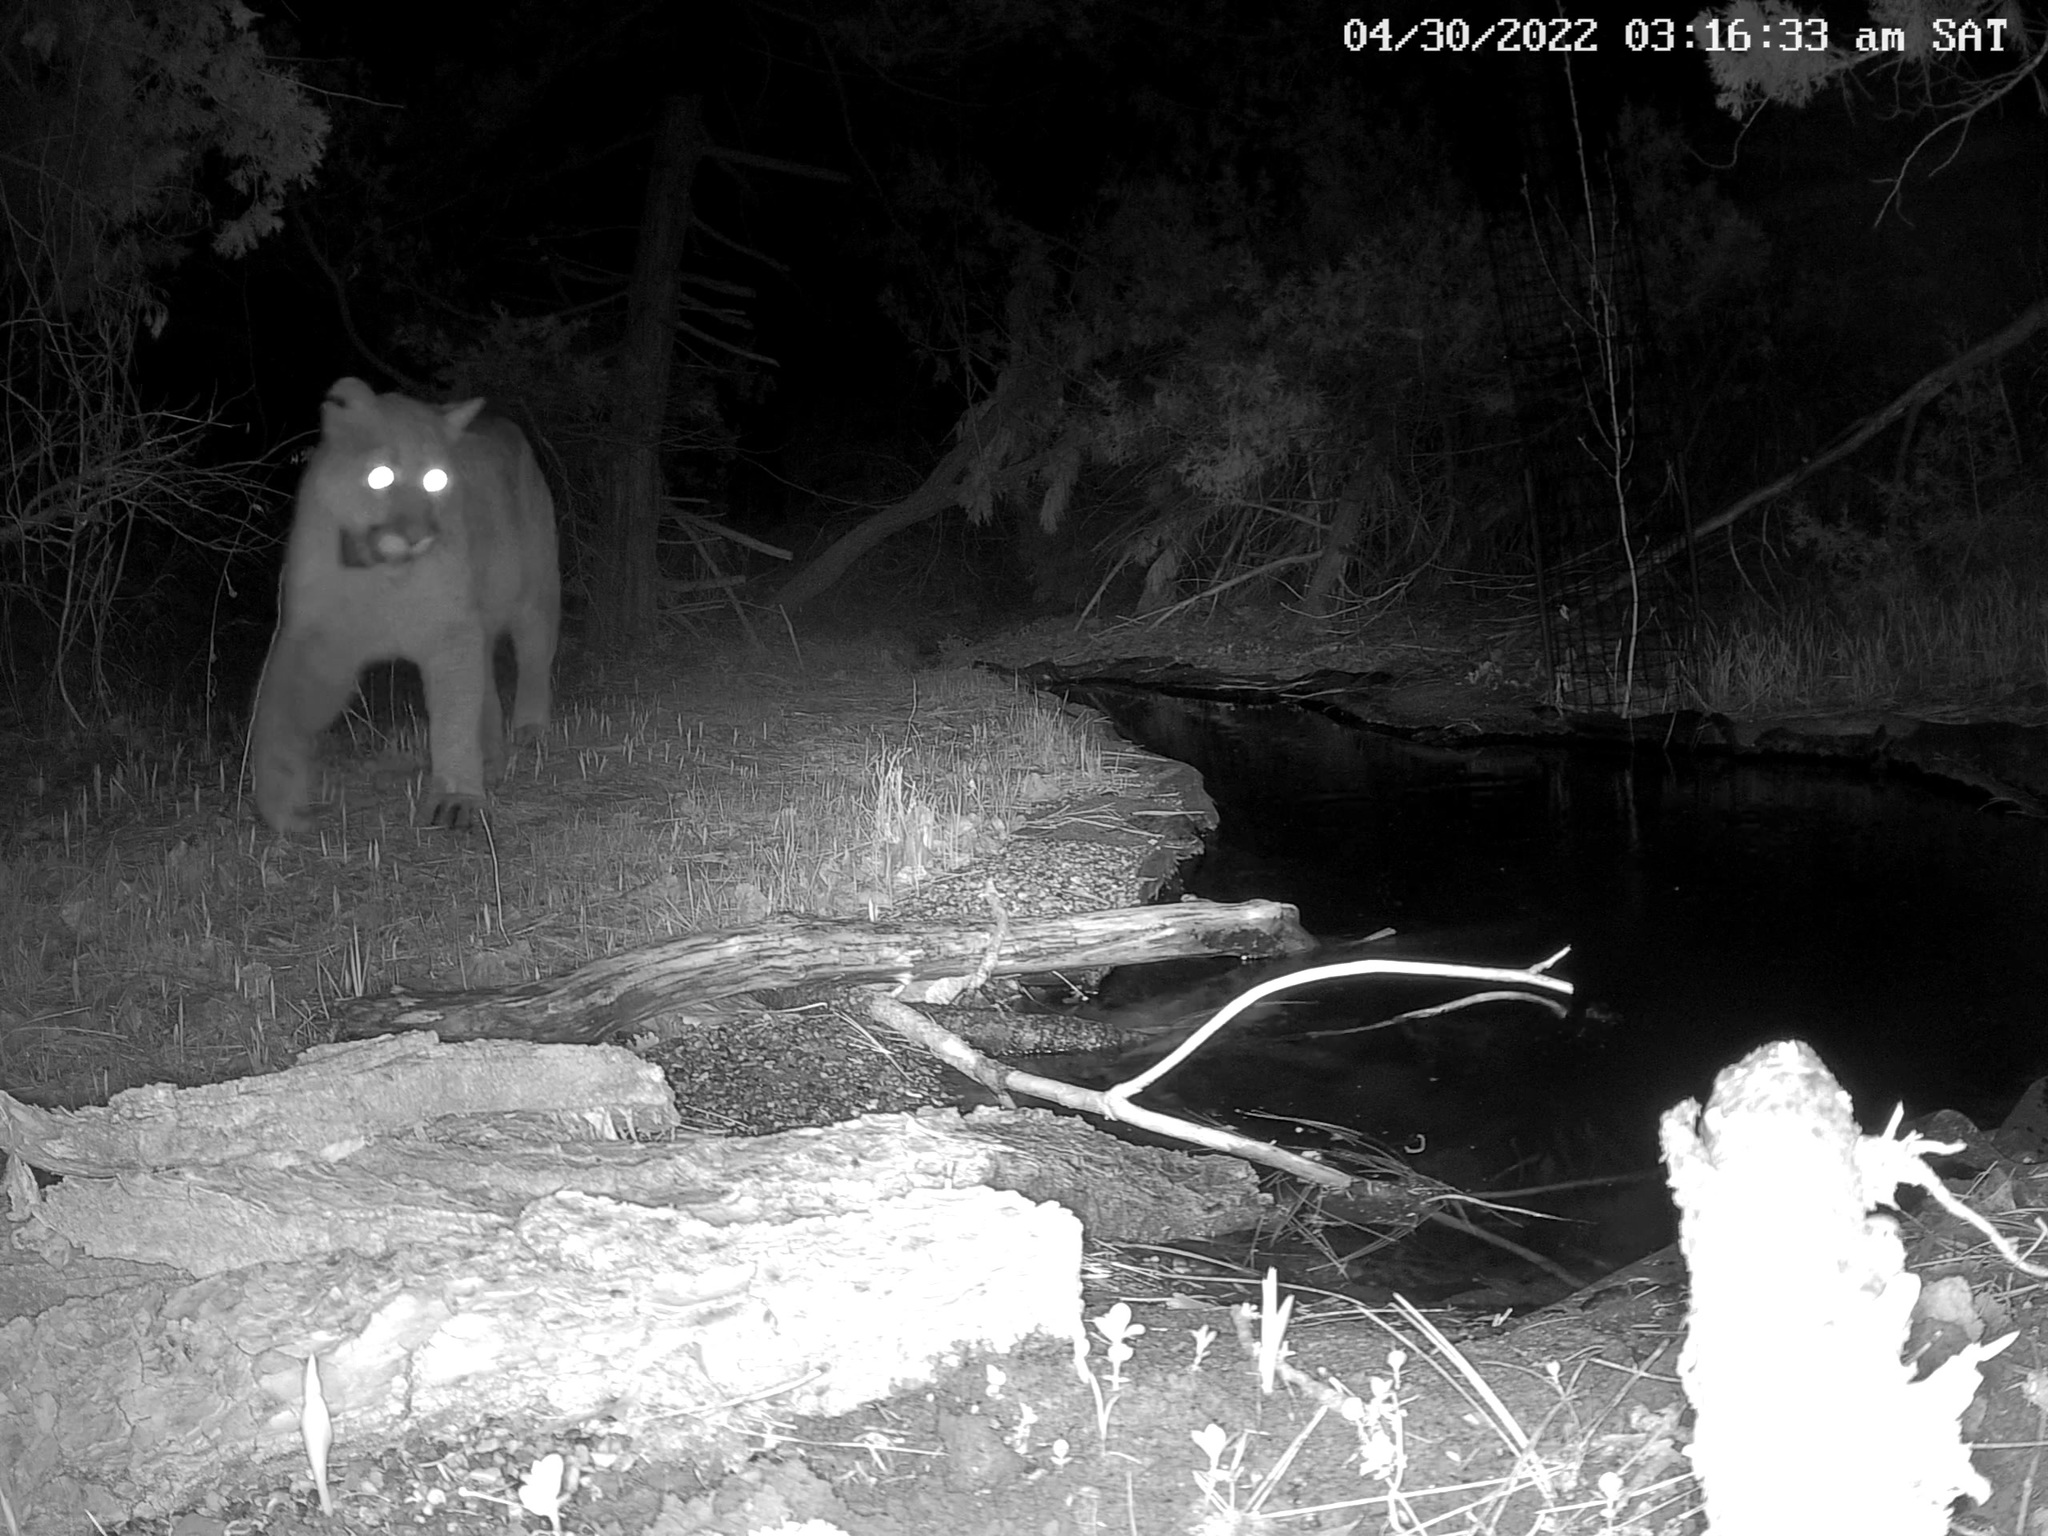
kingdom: Animalia
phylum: Chordata
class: Mammalia
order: Carnivora
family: Felidae
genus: Puma
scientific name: Puma concolor
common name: Puma
